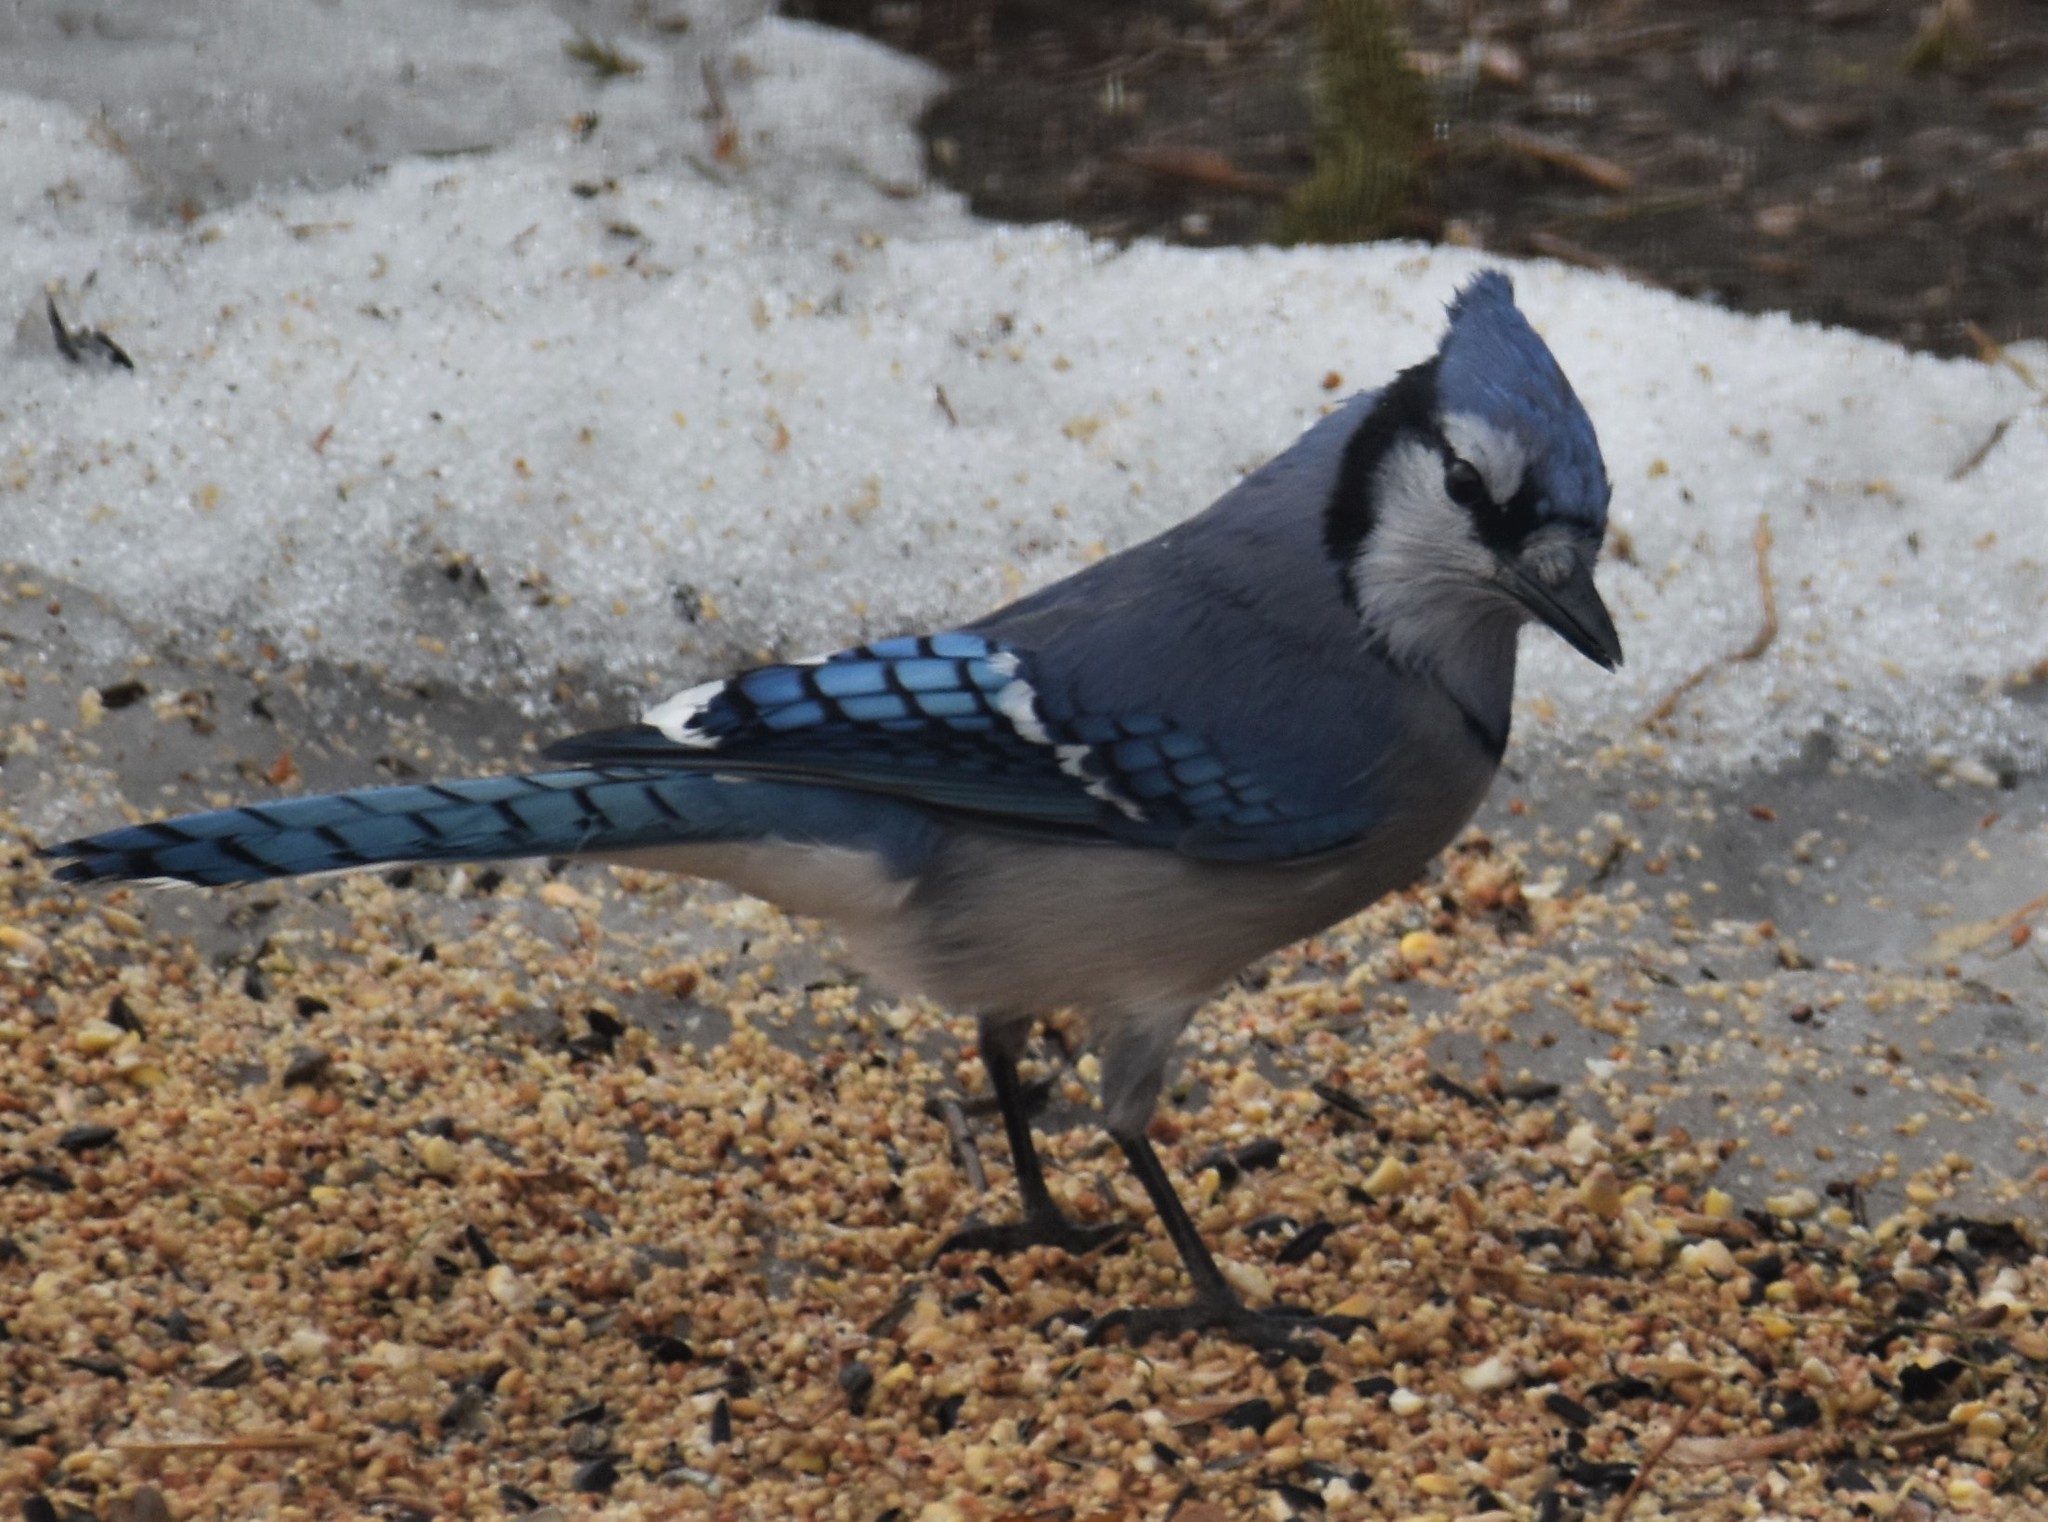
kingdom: Animalia
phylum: Chordata
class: Aves
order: Passeriformes
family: Corvidae
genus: Cyanocitta
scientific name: Cyanocitta cristata
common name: Blue jay
